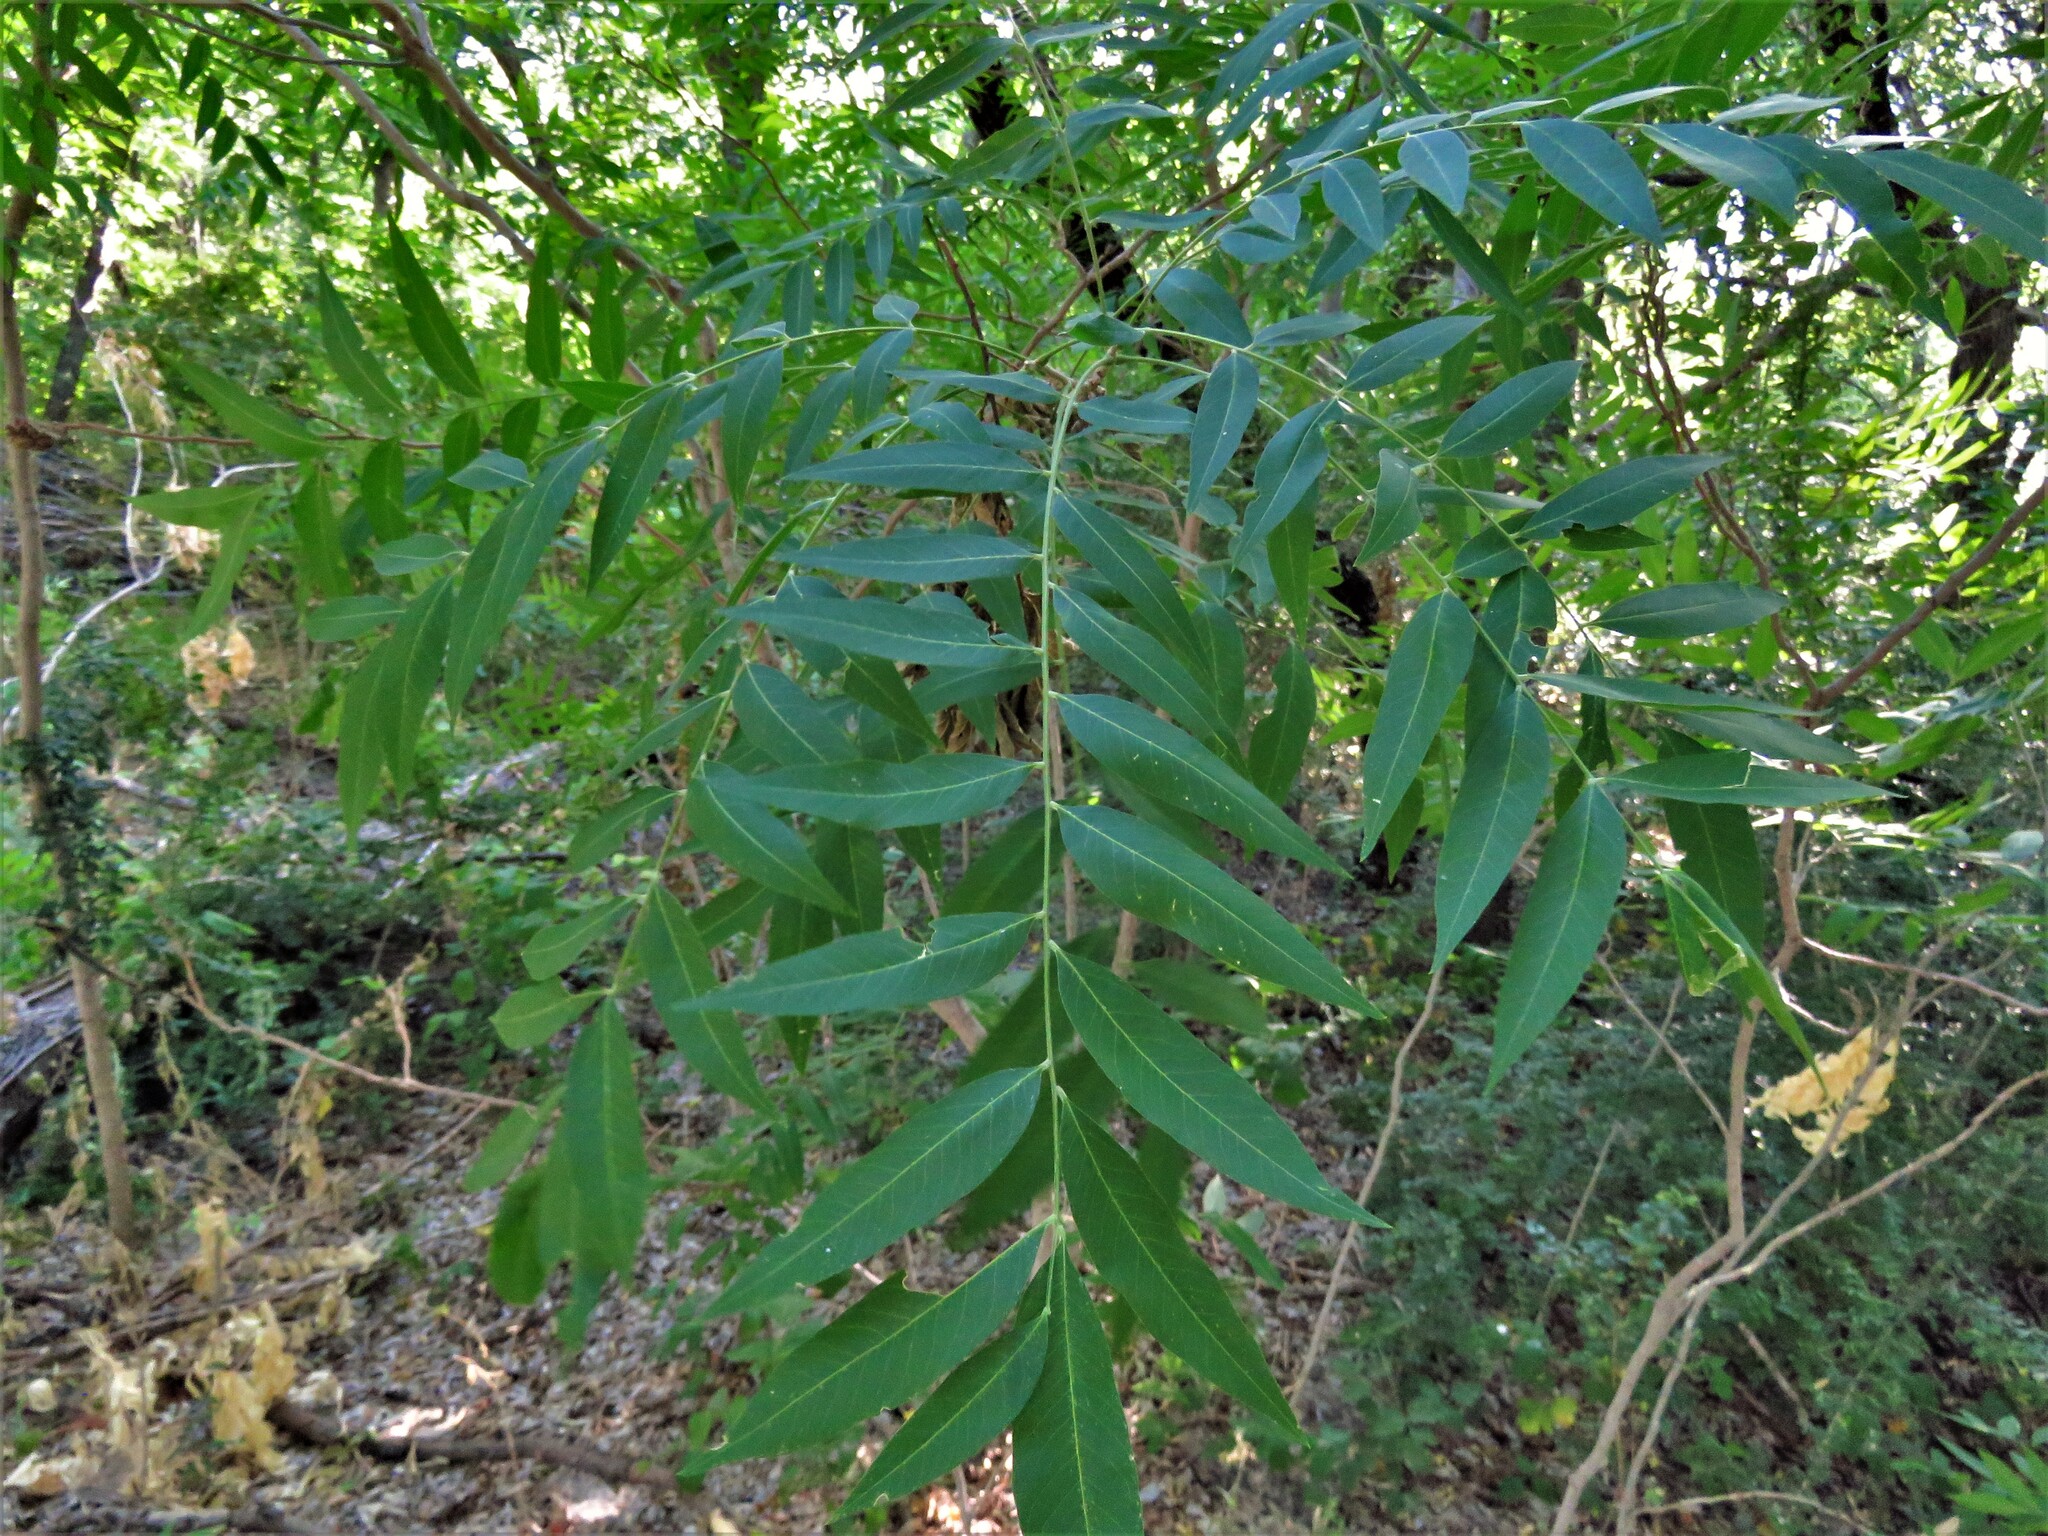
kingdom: Plantae
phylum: Tracheophyta
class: Magnoliopsida
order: Sapindales
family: Sapindaceae
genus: Sapindus
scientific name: Sapindus drummondii
